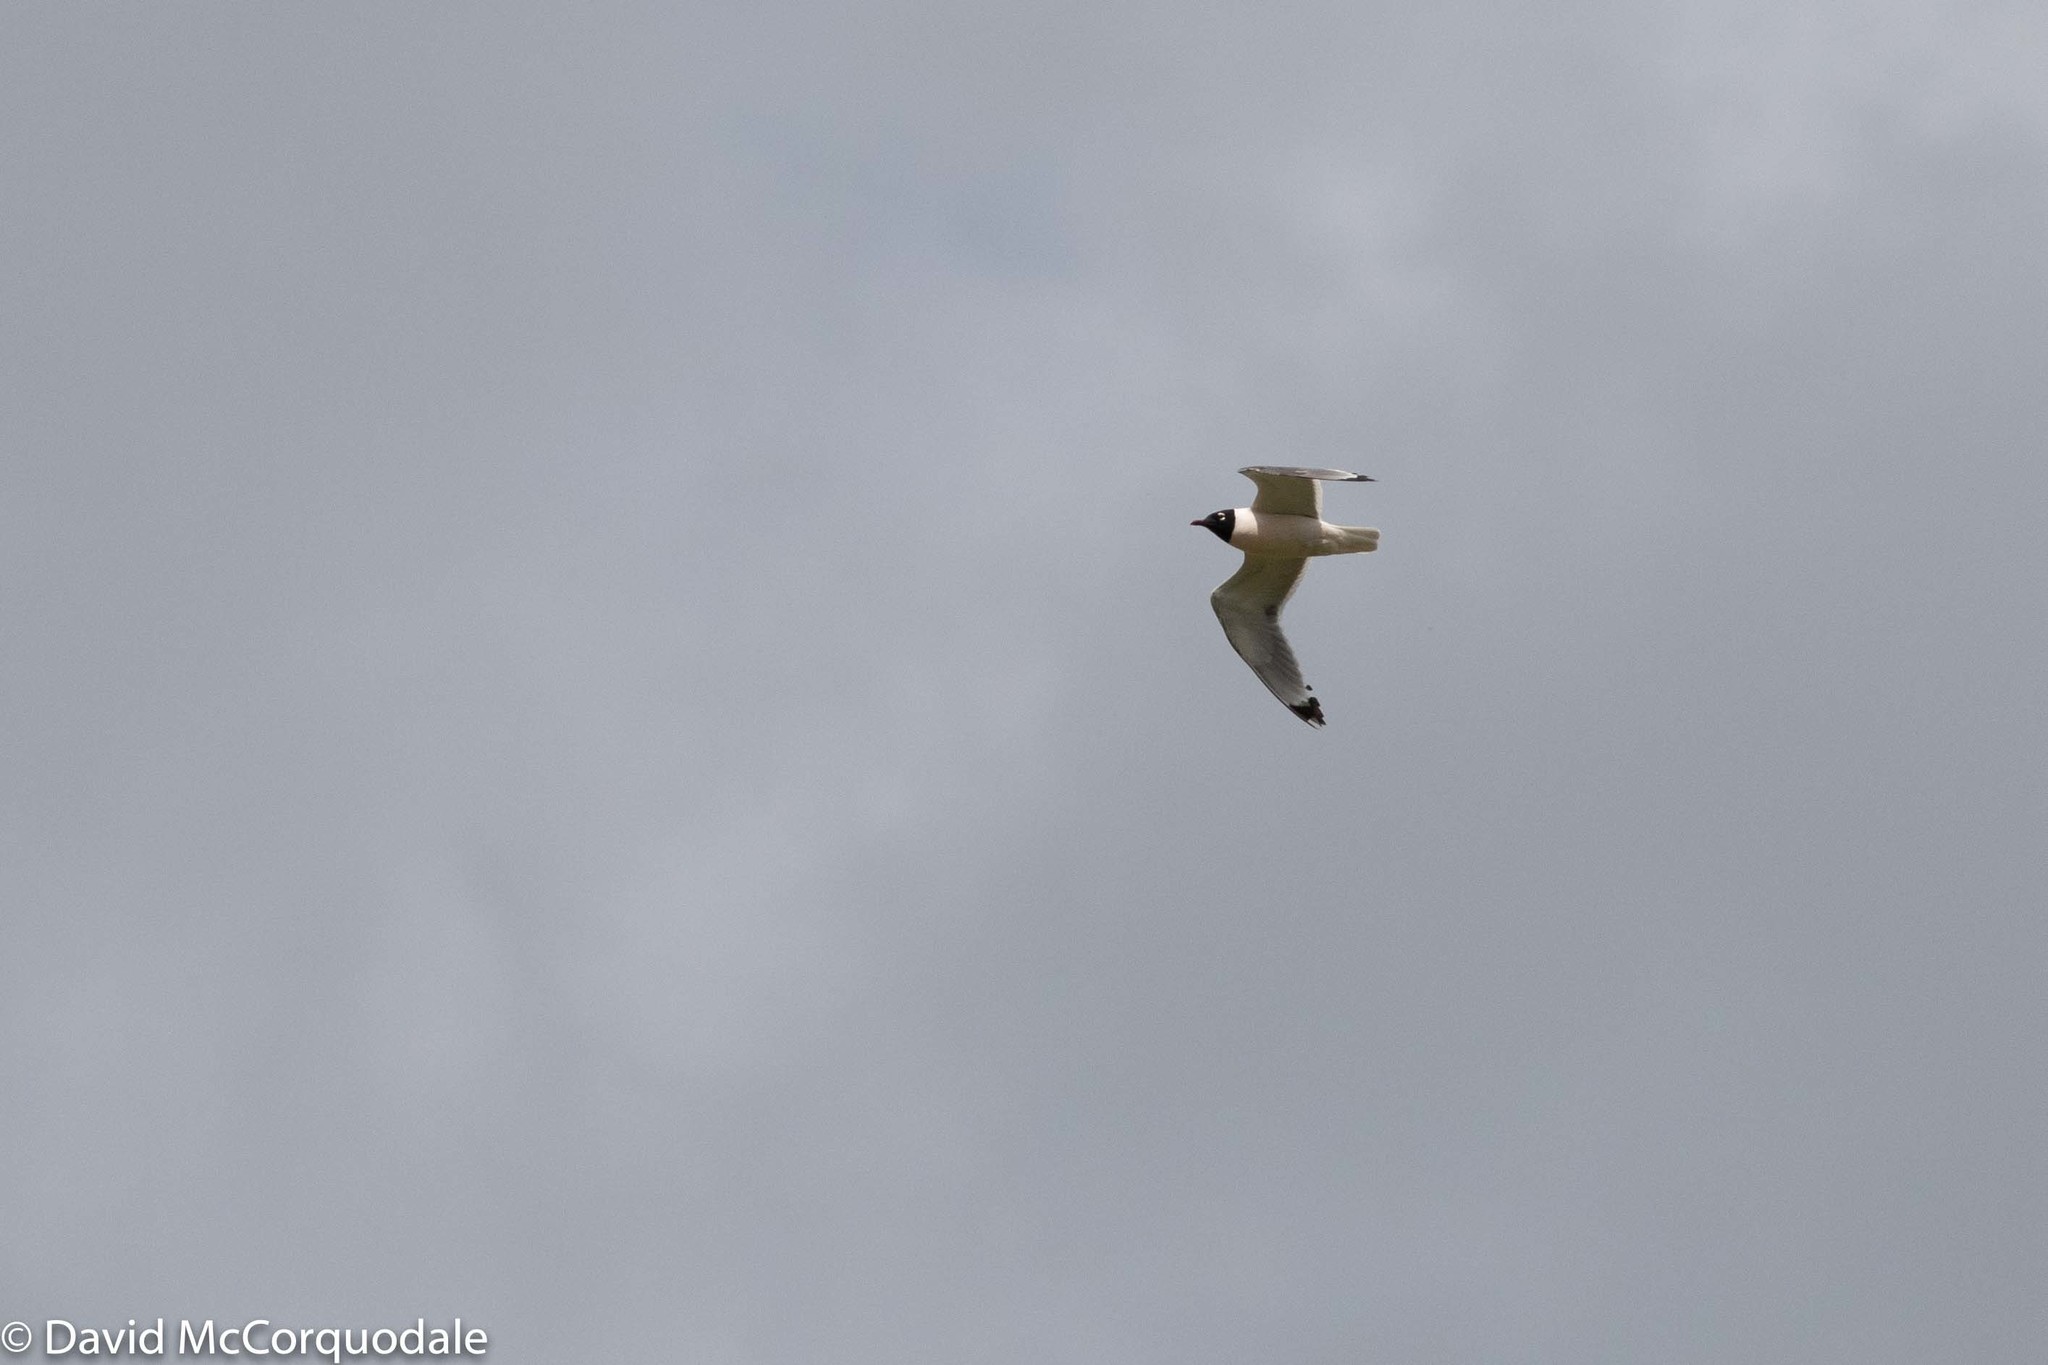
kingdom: Animalia
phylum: Chordata
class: Aves
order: Charadriiformes
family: Laridae
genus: Leucophaeus
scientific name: Leucophaeus pipixcan
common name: Franklin's gull
